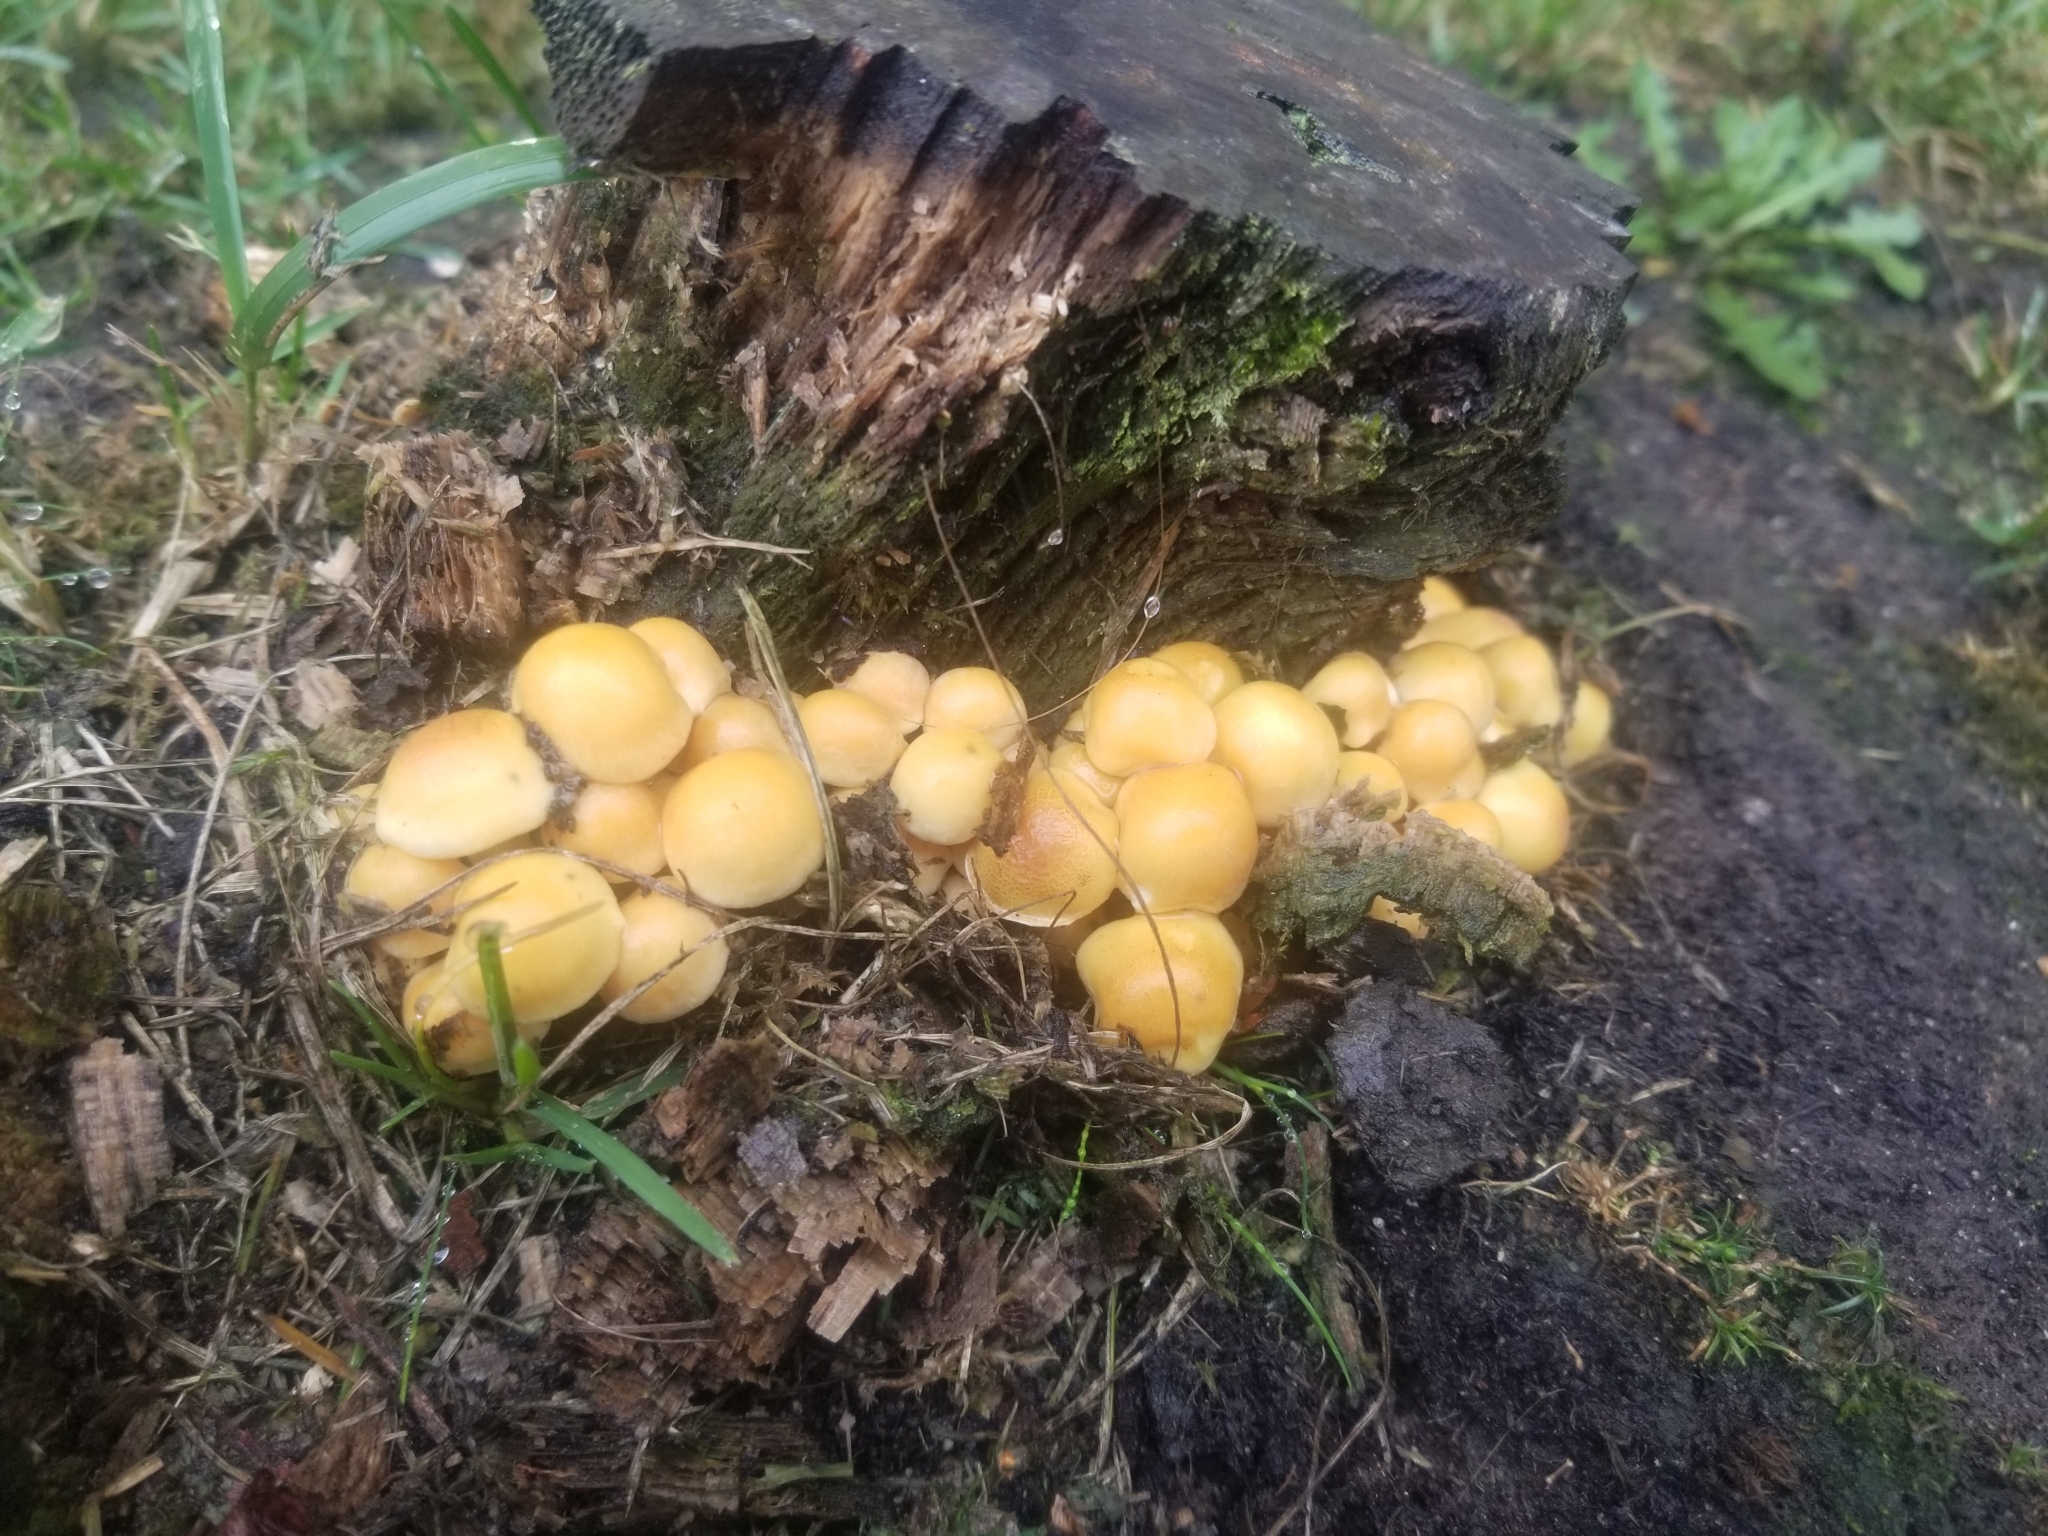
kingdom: Fungi
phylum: Basidiomycota
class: Agaricomycetes
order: Agaricales
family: Strophariaceae
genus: Hypholoma
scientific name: Hypholoma fasciculare
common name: Sulphur tuft
